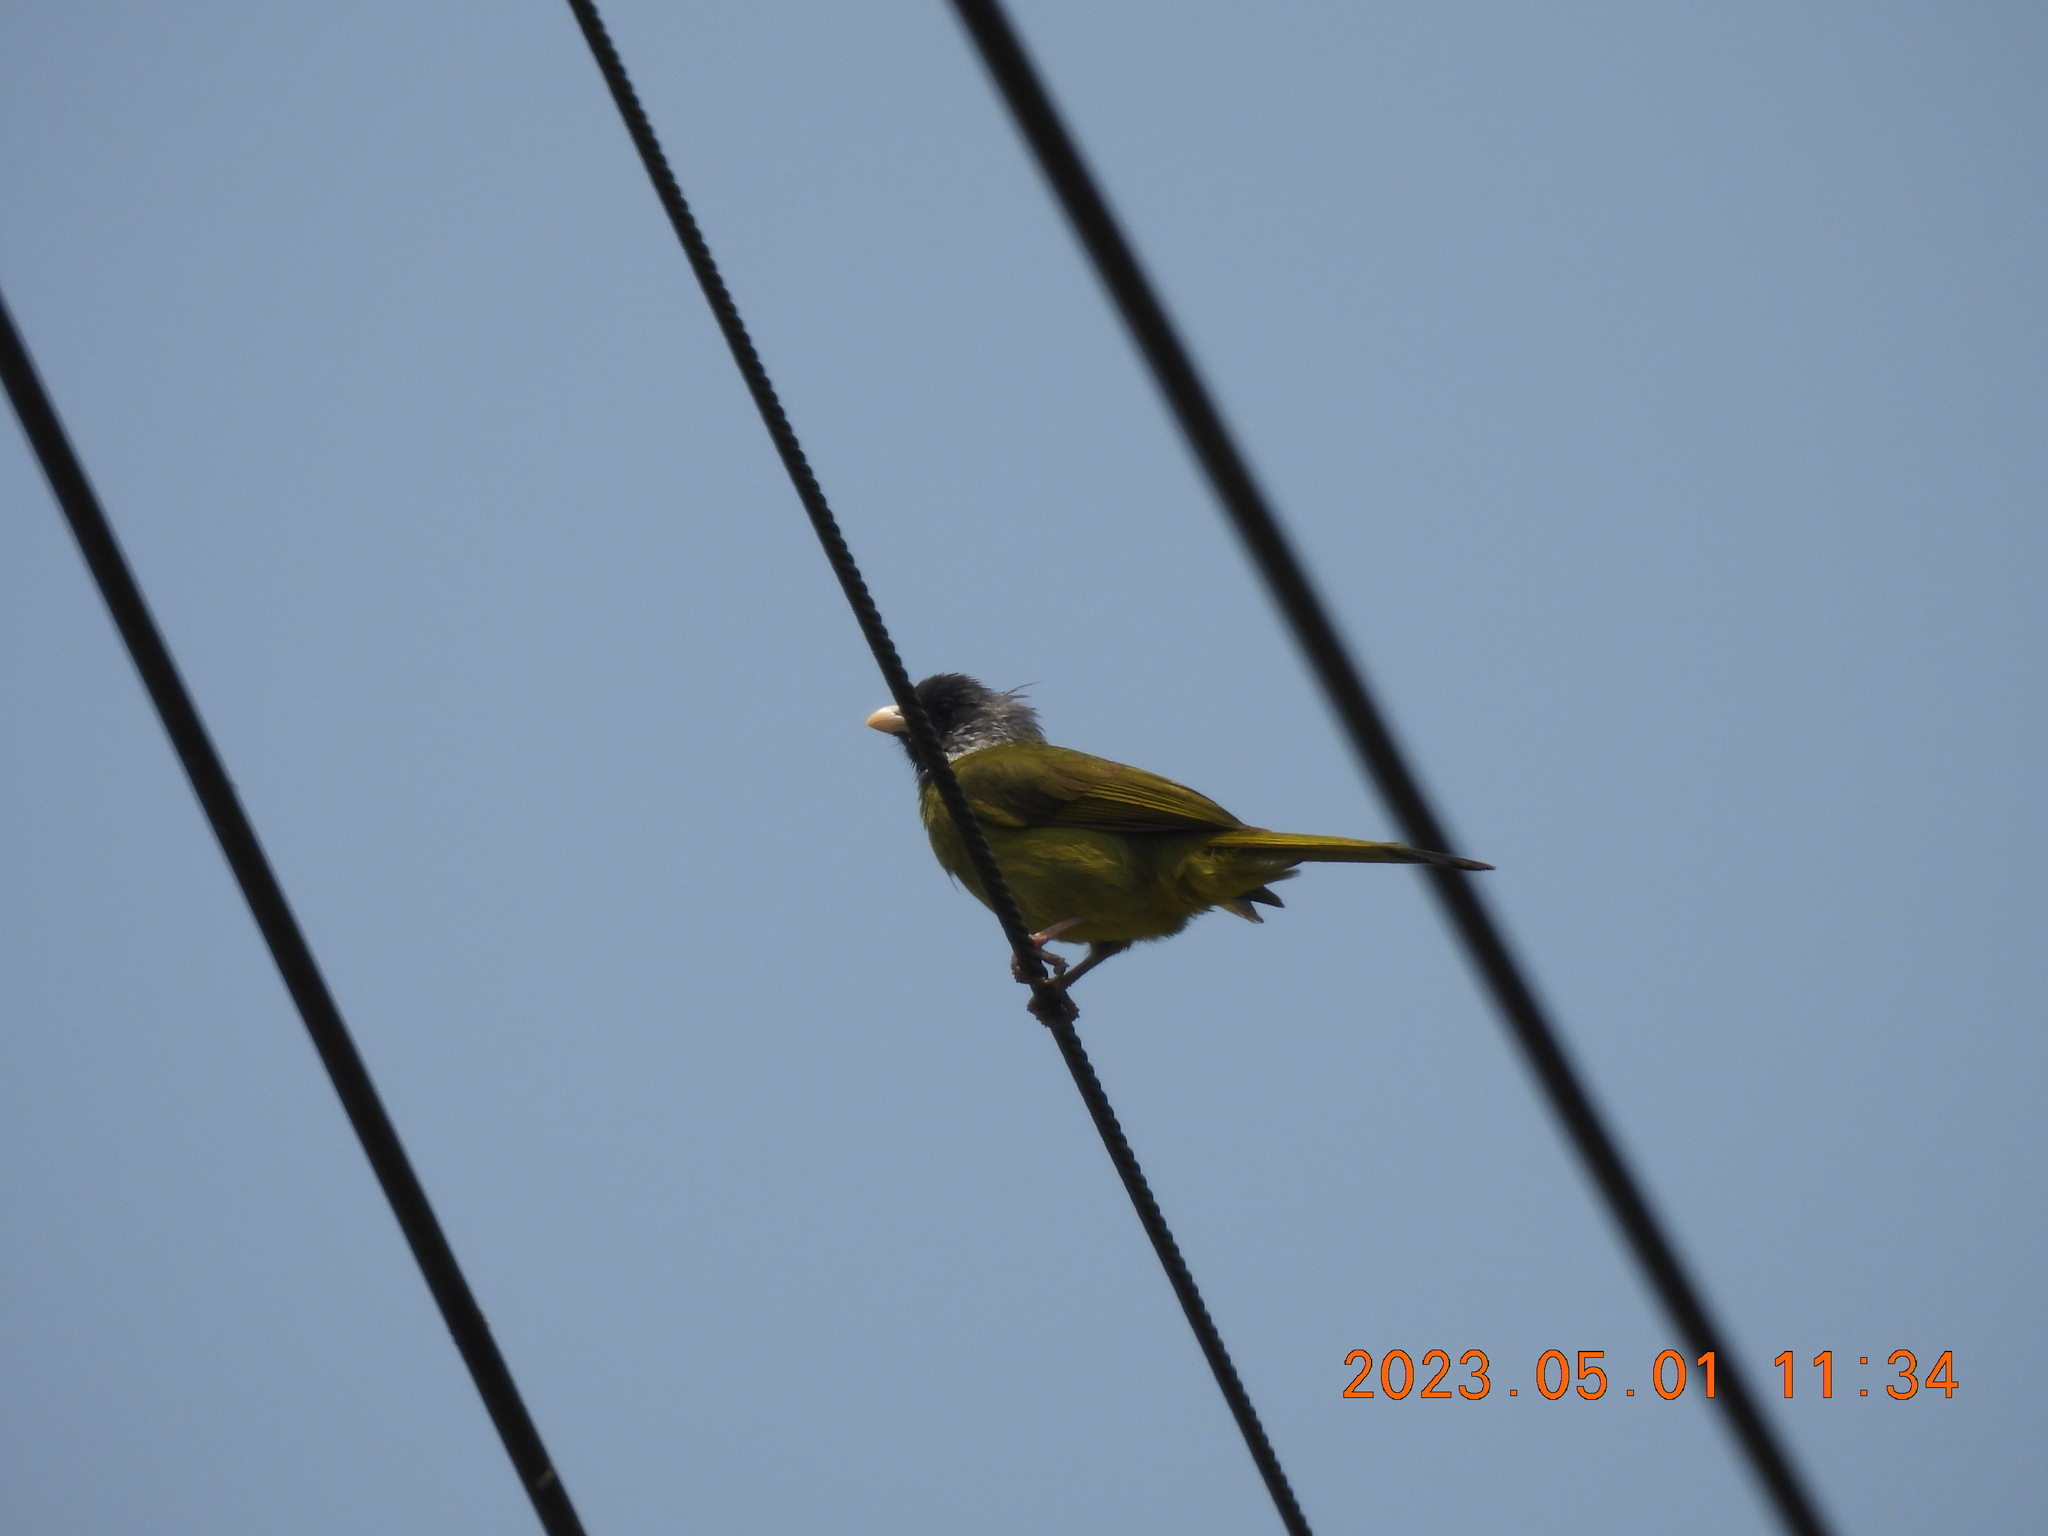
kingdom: Animalia
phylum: Chordata
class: Aves
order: Passeriformes
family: Pycnonotidae
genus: Spizixos
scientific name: Spizixos semitorques
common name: Collared finchbill
